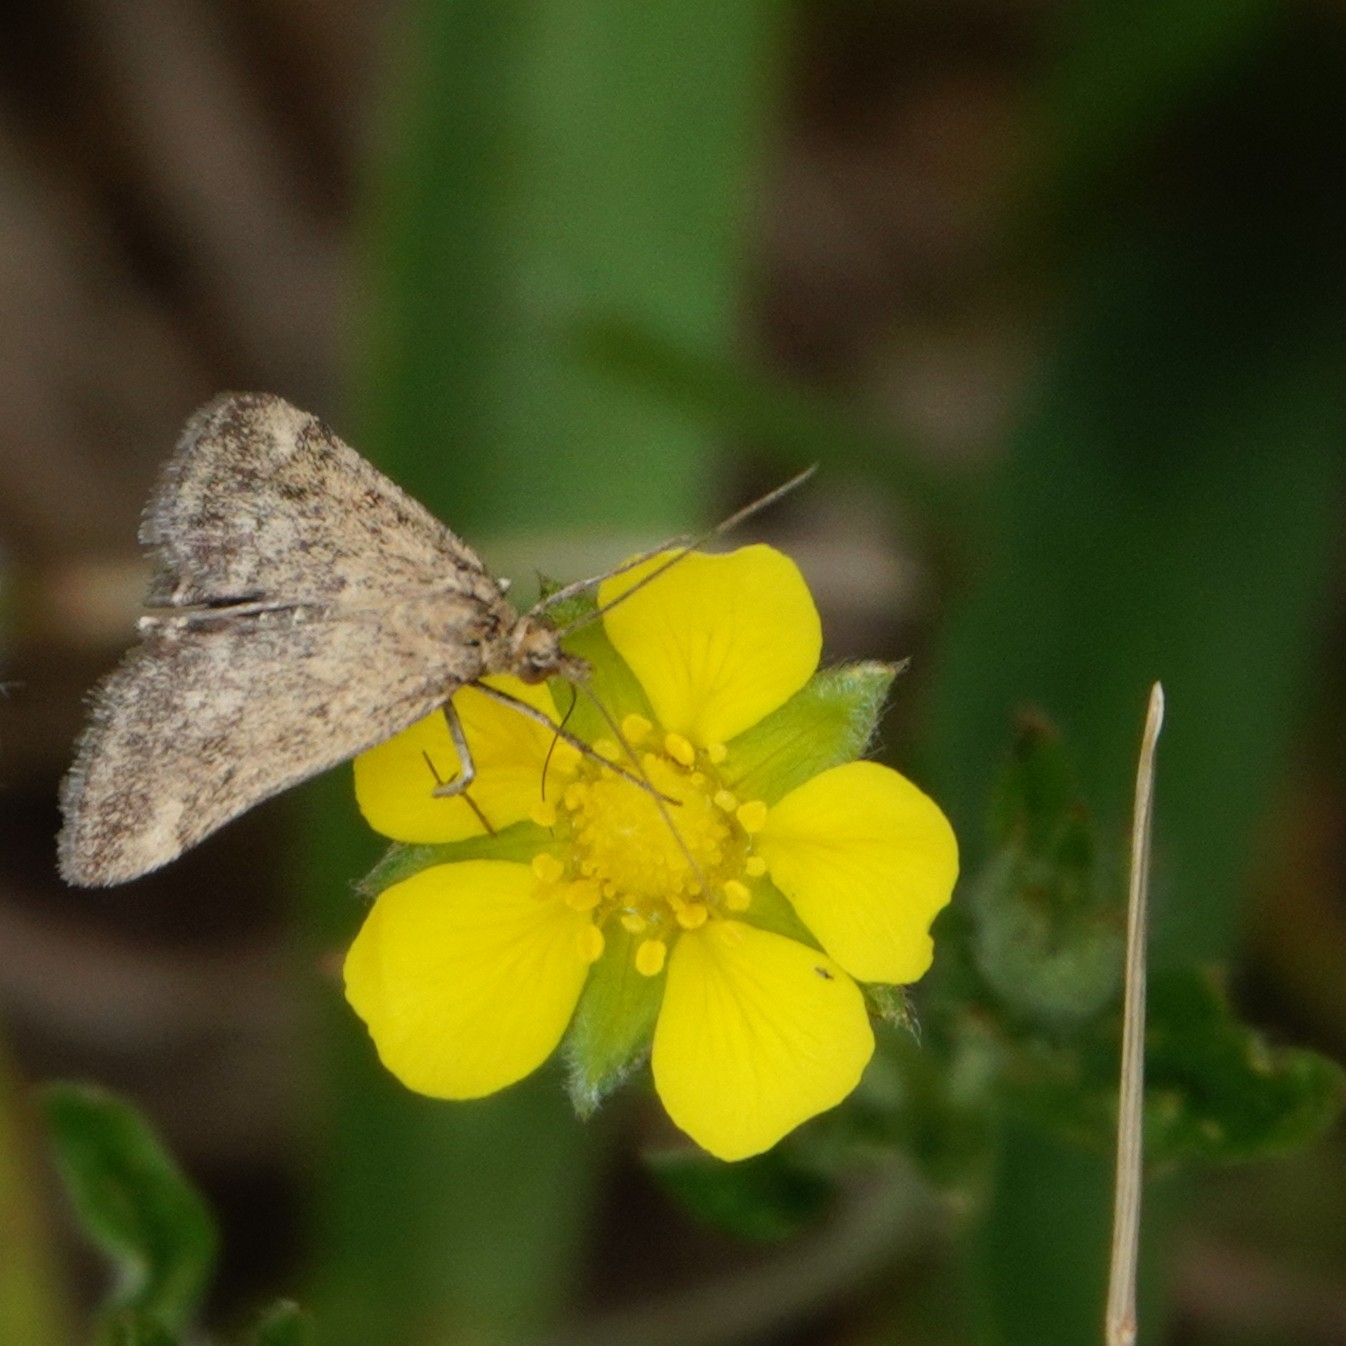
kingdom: Animalia
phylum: Arthropoda
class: Insecta
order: Lepidoptera
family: Crambidae
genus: Pyrausta
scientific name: Pyrausta despicata
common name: Straw-barred pearl
